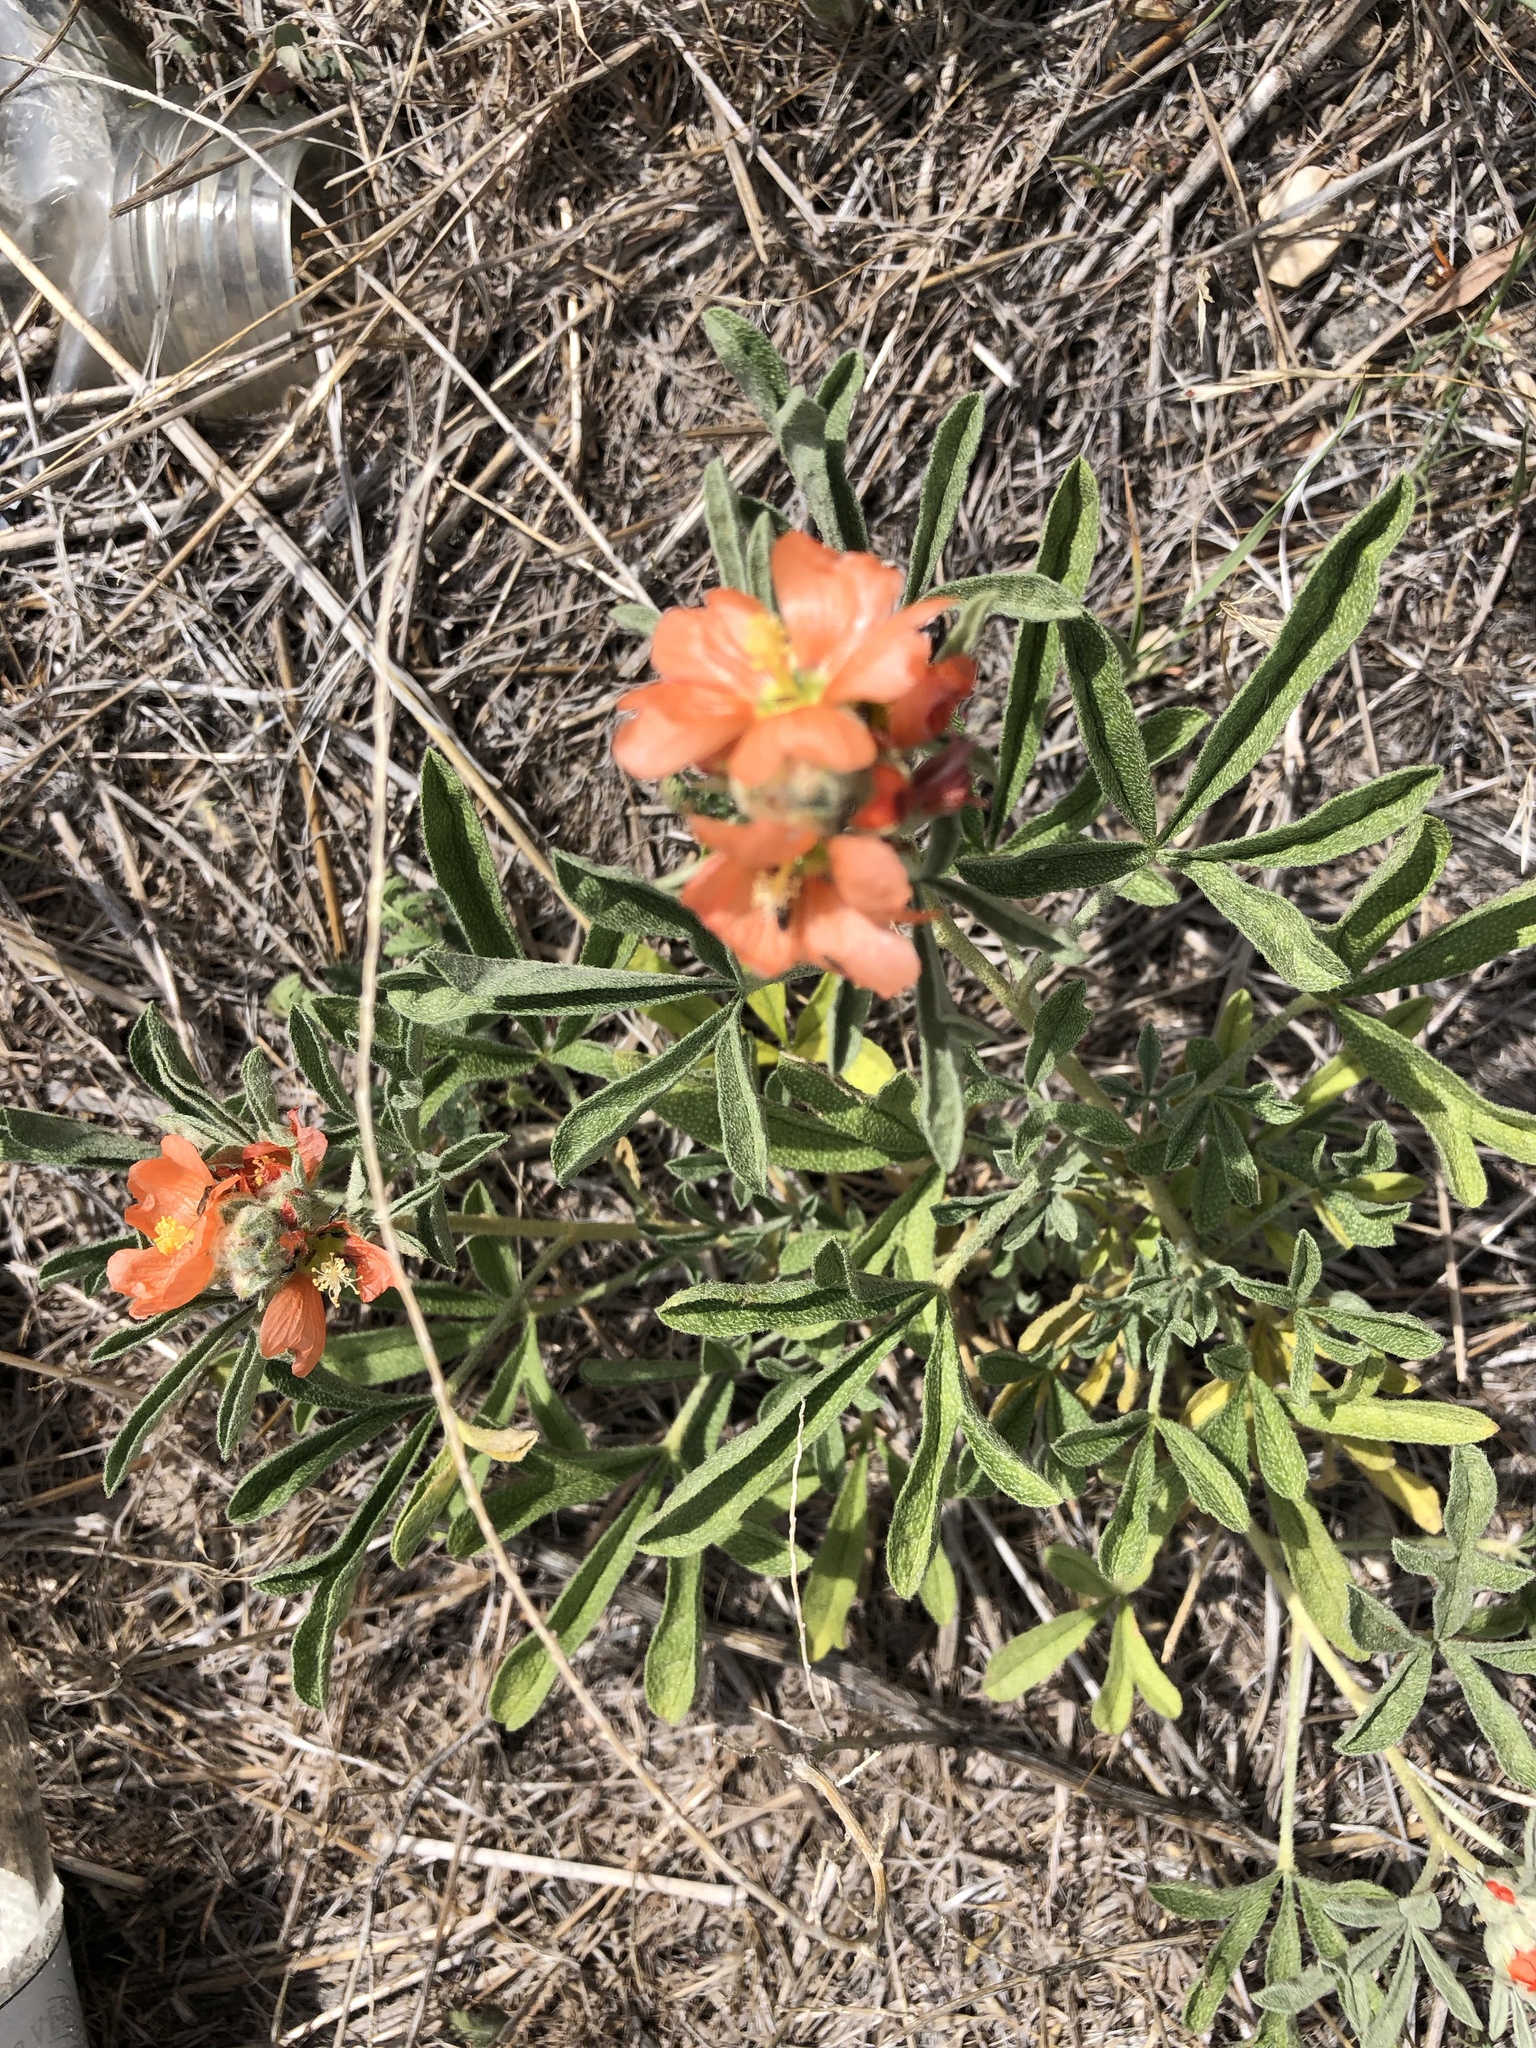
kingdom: Plantae
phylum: Tracheophyta
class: Magnoliopsida
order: Malvales
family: Malvaceae
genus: Sphaeralcea
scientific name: Sphaeralcea coccinea
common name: Moss-rose
